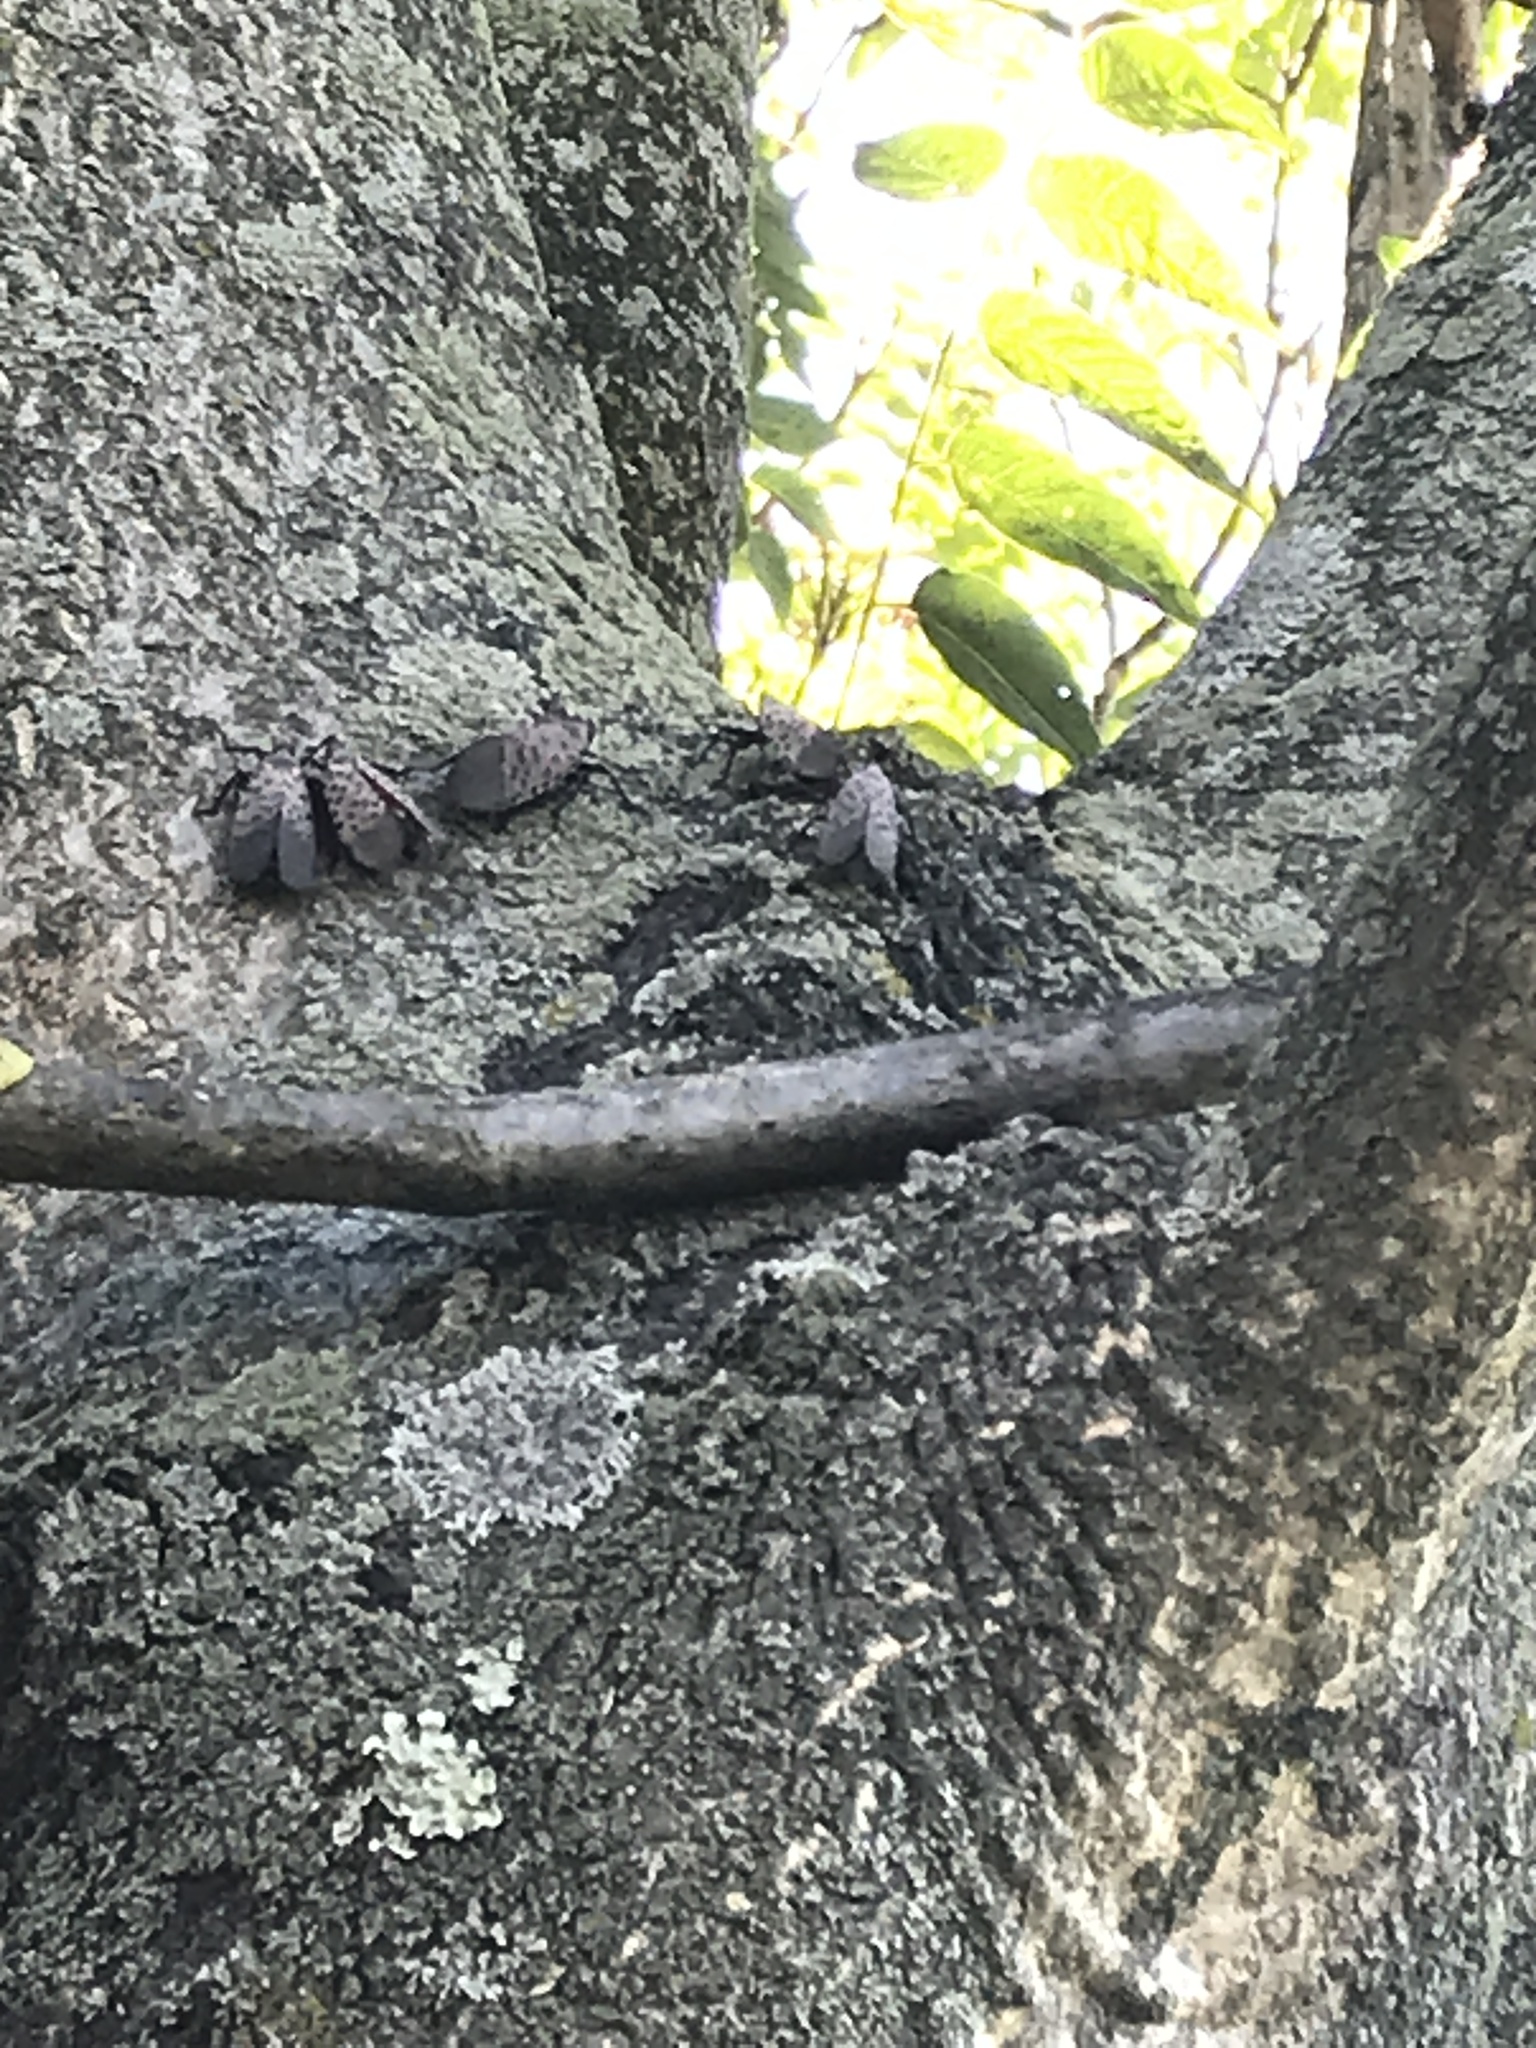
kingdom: Animalia
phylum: Arthropoda
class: Insecta
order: Hemiptera
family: Fulgoridae
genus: Lycorma
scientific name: Lycorma delicatula
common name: Spotted lanternfly
